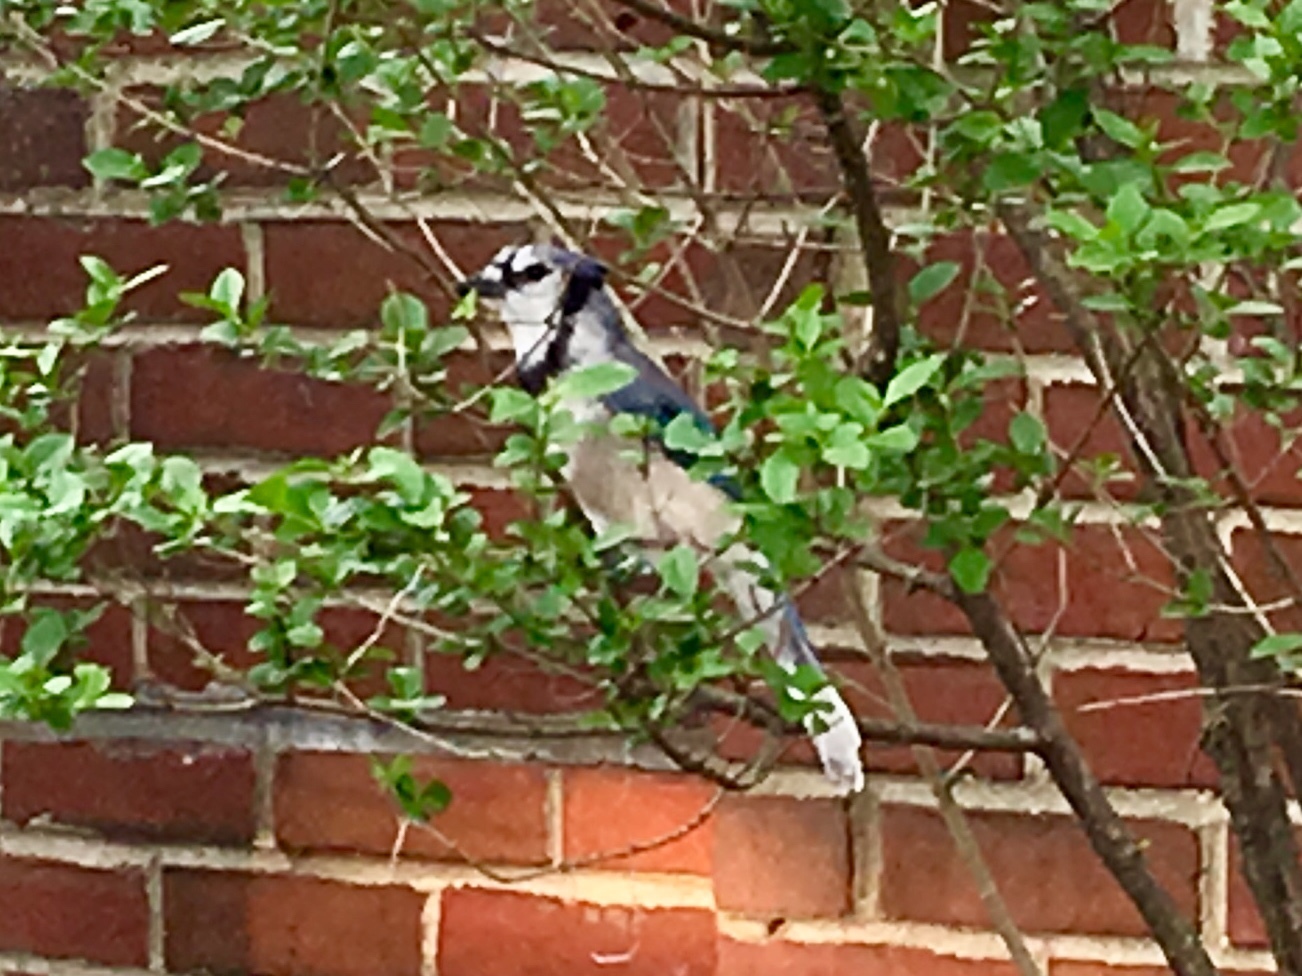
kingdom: Animalia
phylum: Chordata
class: Aves
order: Passeriformes
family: Corvidae
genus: Cyanocitta
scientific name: Cyanocitta cristata
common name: Blue jay
